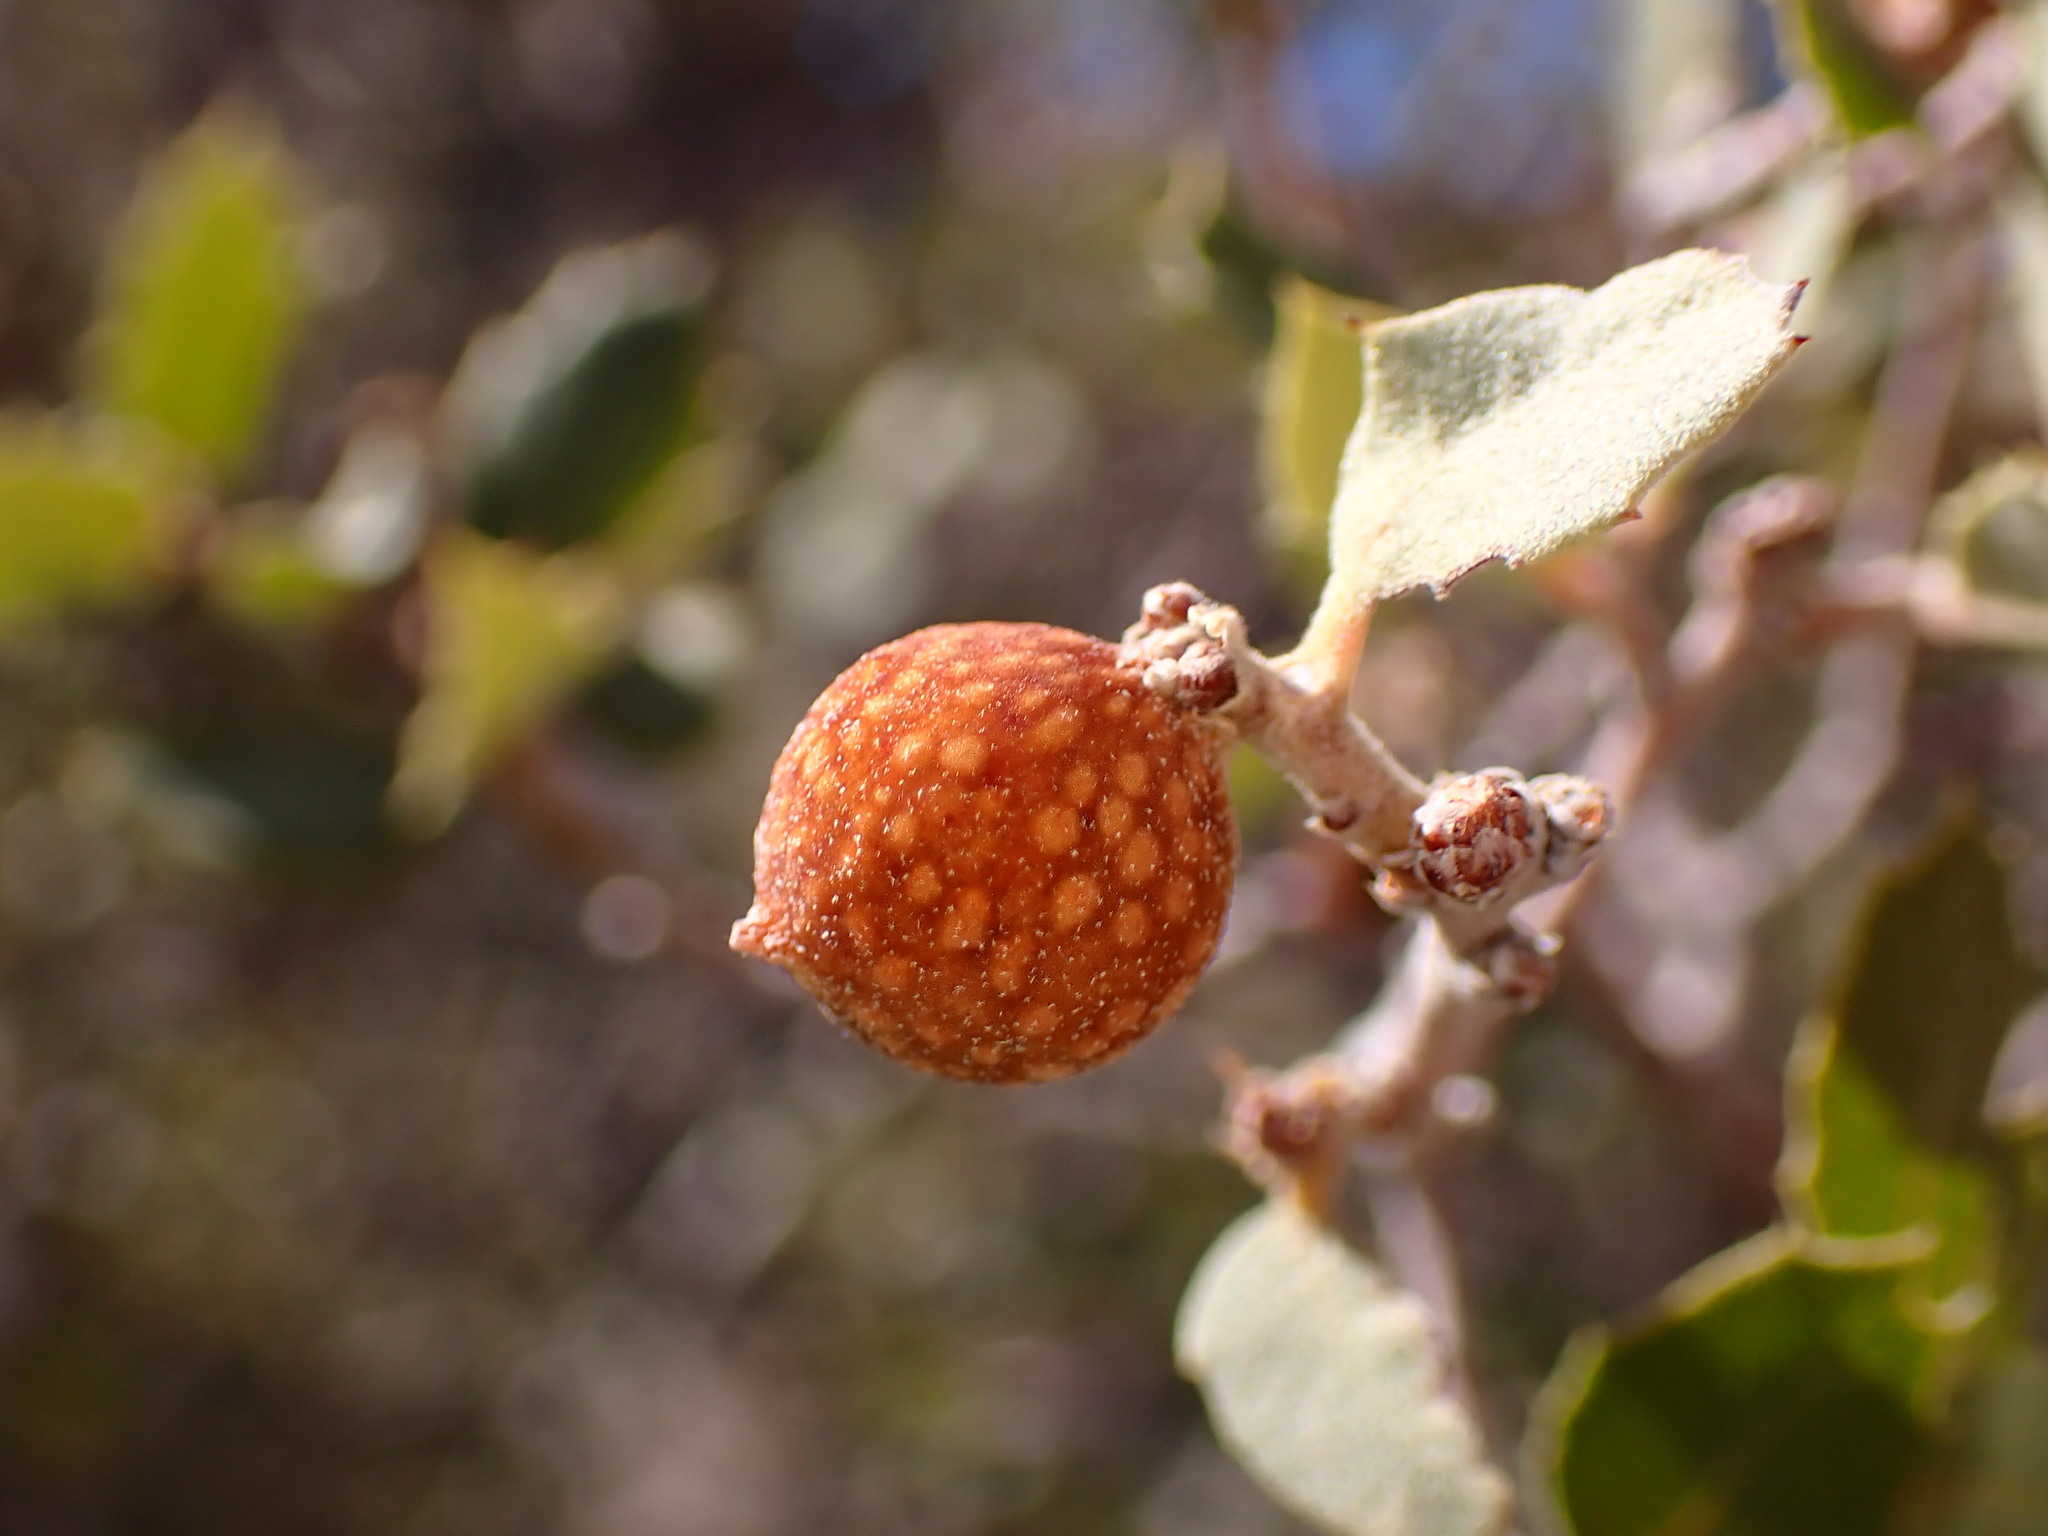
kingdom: Animalia
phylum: Arthropoda
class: Insecta
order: Hymenoptera
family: Cynipidae
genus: Burnettweldia
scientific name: Burnettweldia
